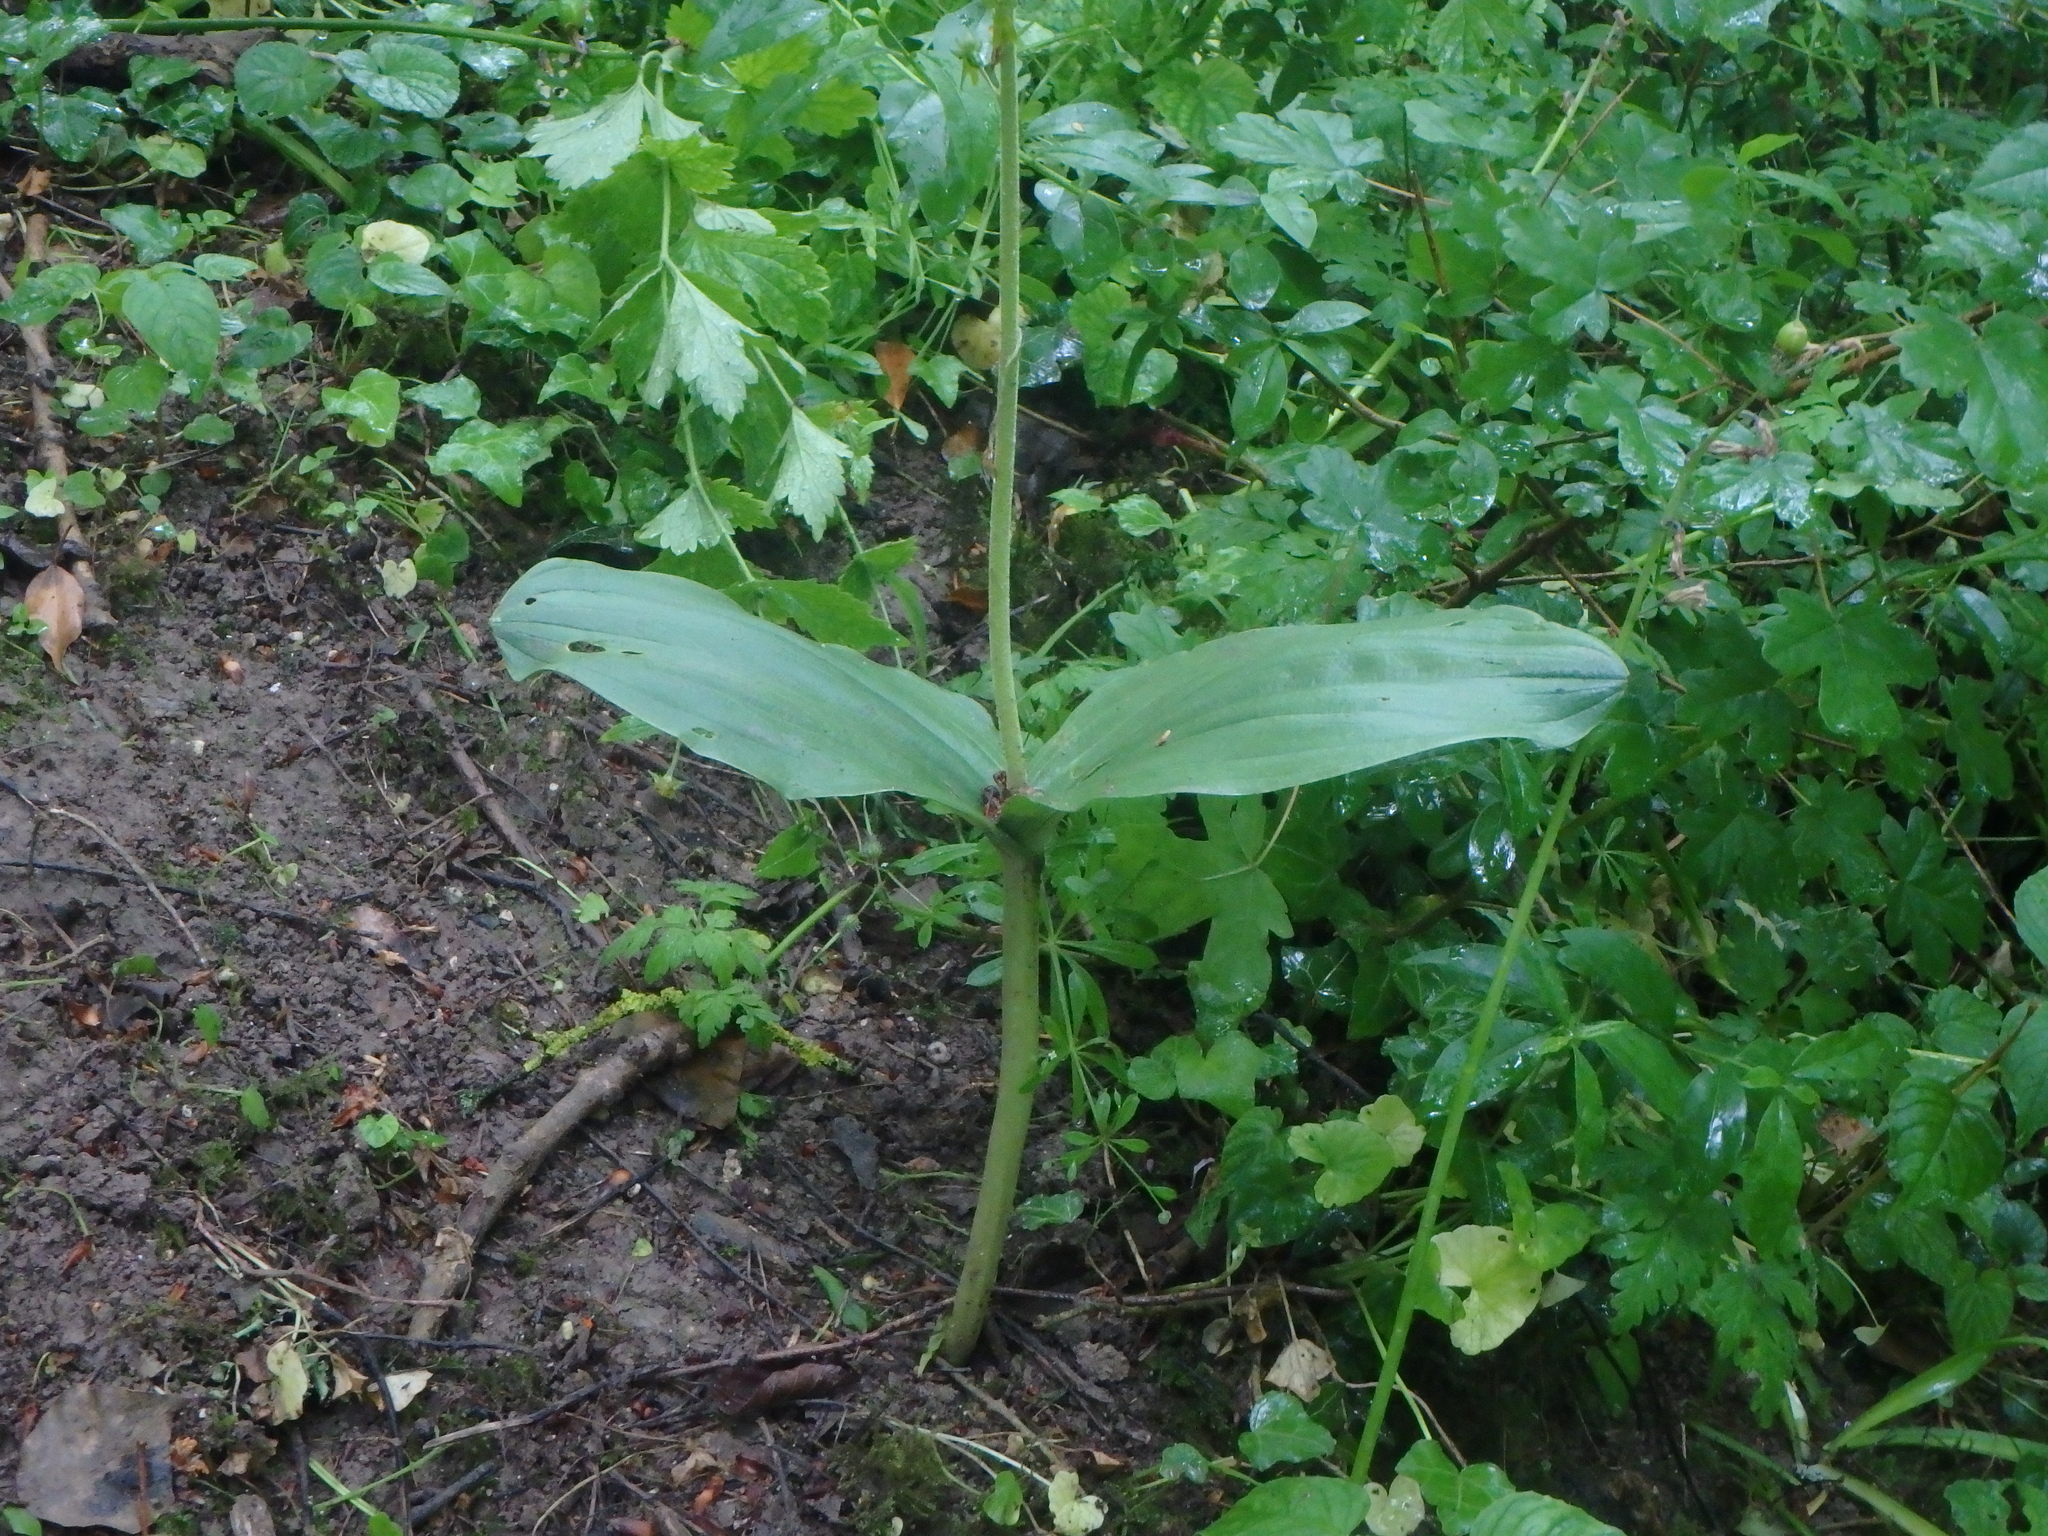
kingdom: Plantae
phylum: Tracheophyta
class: Liliopsida
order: Asparagales
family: Orchidaceae
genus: Neottia
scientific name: Neottia ovata
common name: Common twayblade
